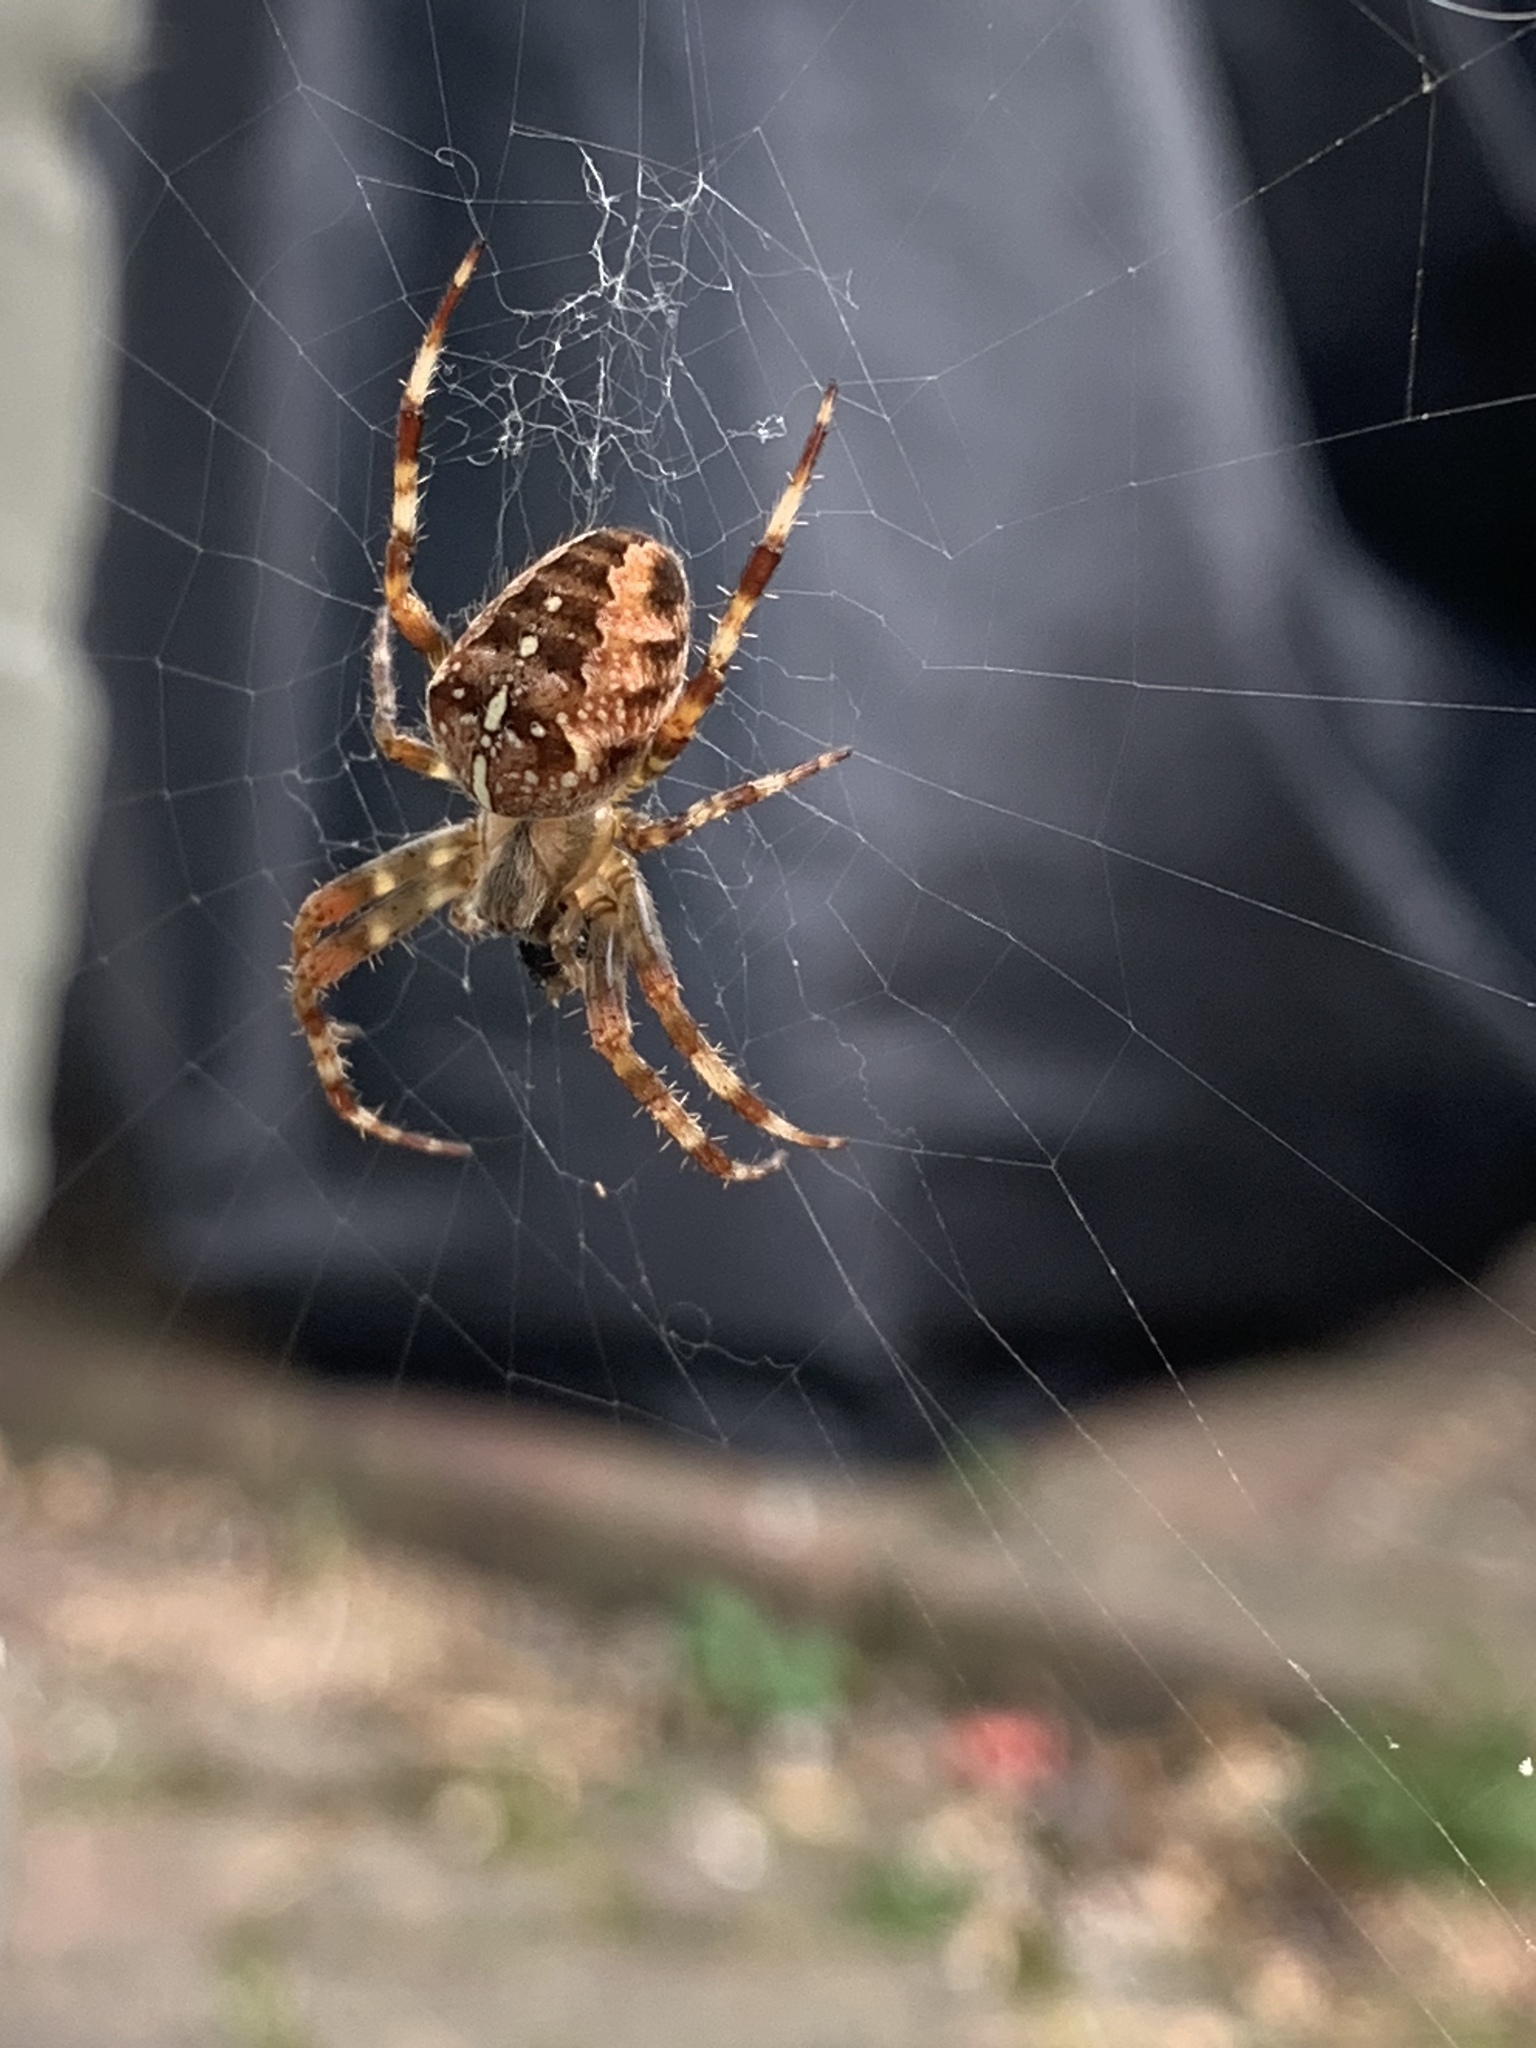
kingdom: Animalia
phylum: Arthropoda
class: Arachnida
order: Araneae
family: Araneidae
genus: Araneus
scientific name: Araneus diadematus
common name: Cross orbweaver
